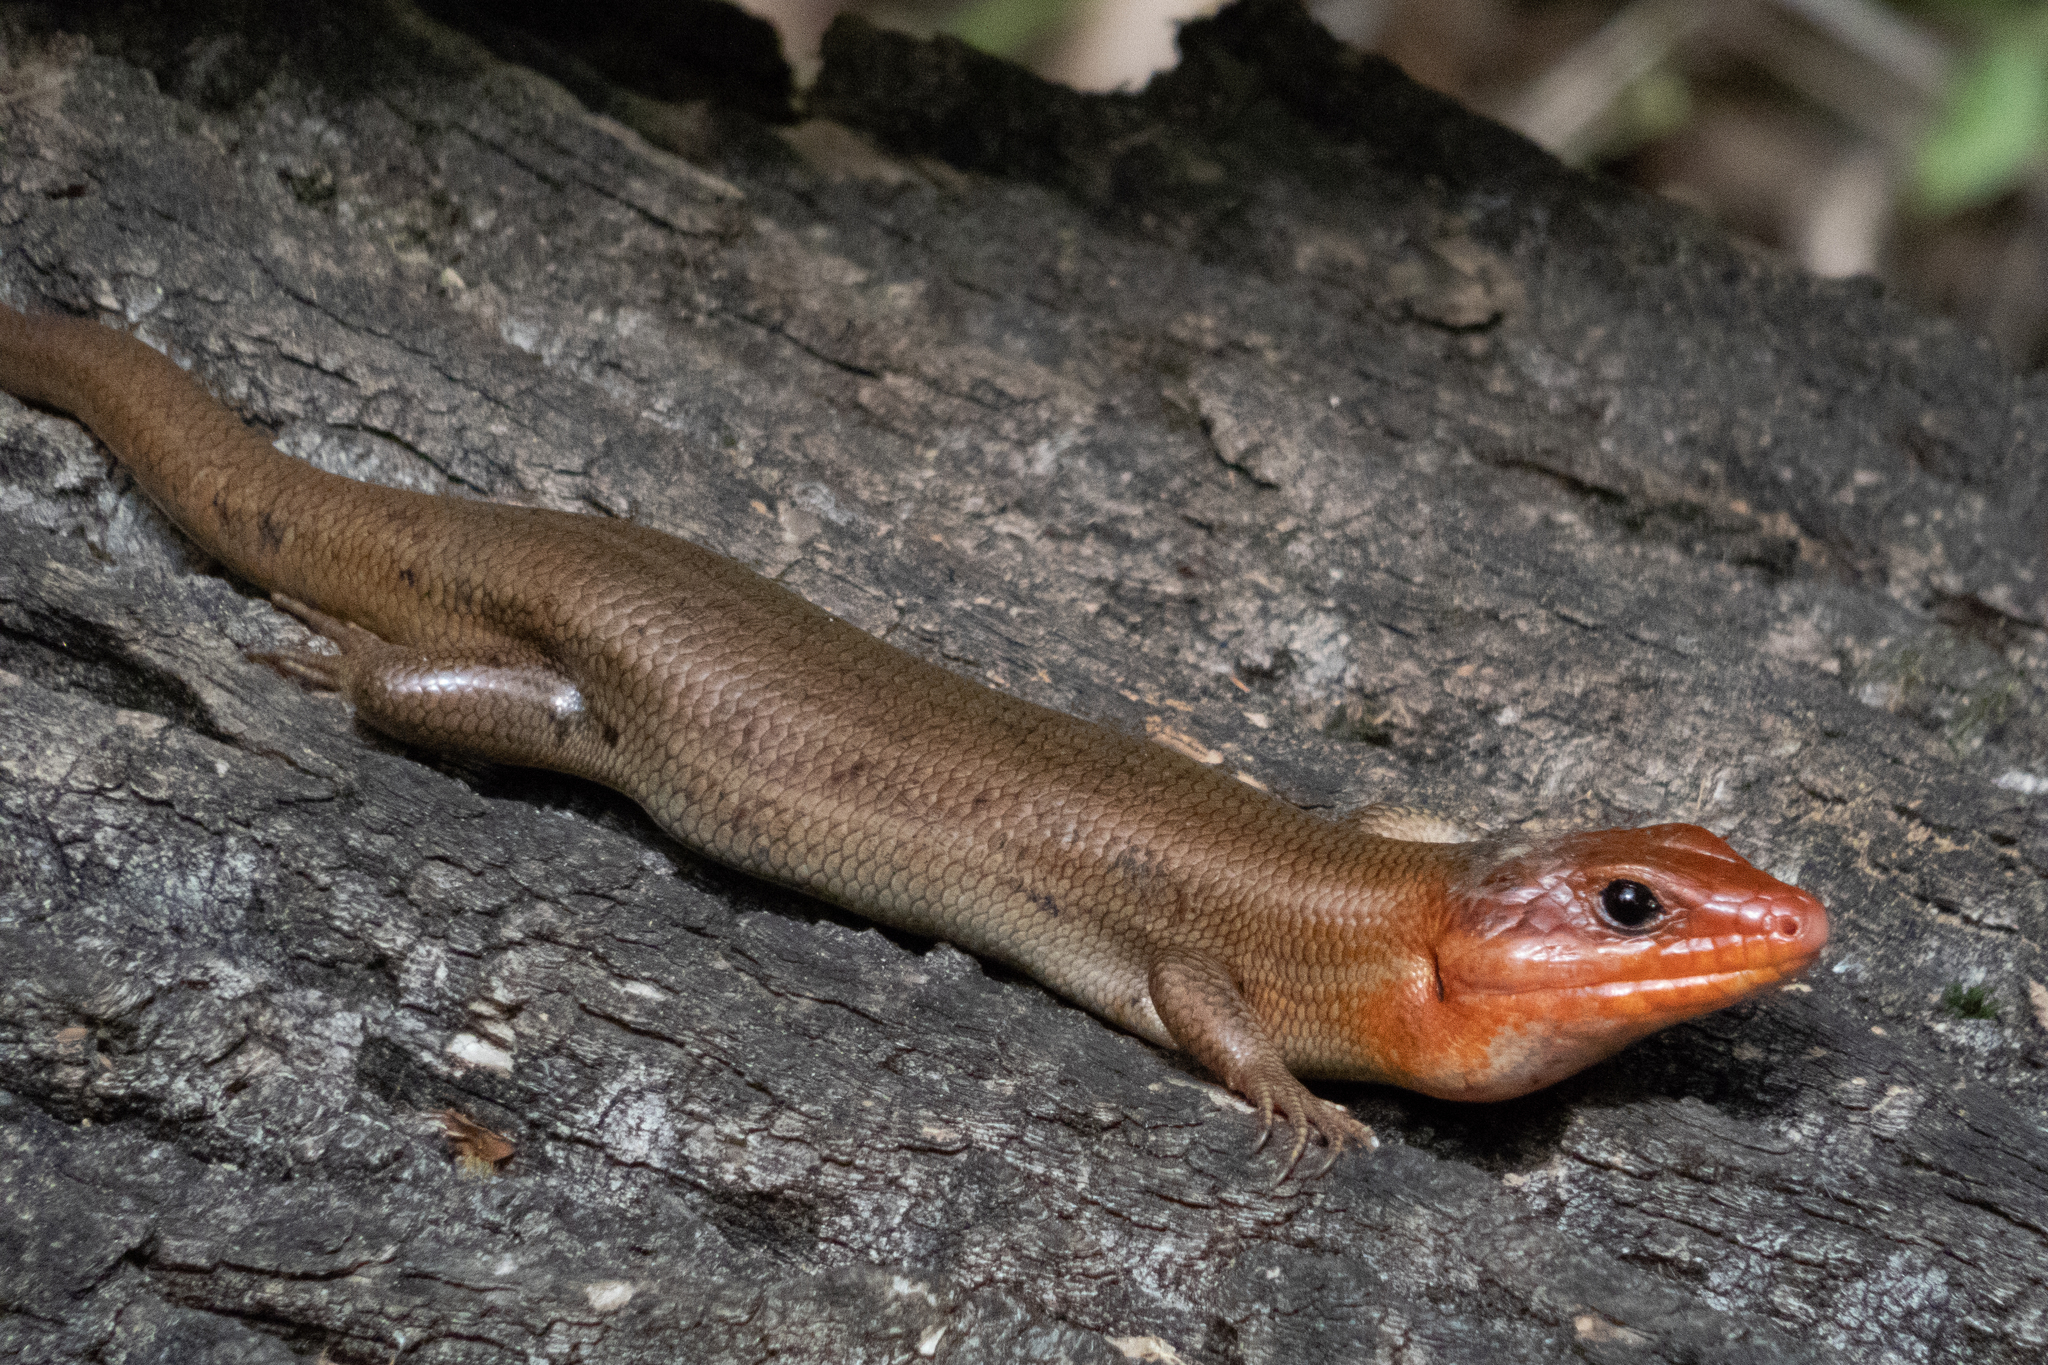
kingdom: Animalia
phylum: Chordata
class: Squamata
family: Scincidae
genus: Plestiodon
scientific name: Plestiodon laticeps
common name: Broadhead skink
